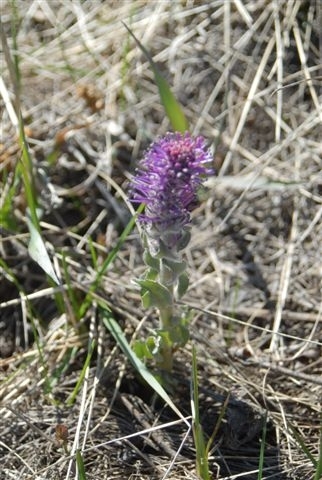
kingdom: Plantae
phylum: Tracheophyta
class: Magnoliopsida
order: Lamiales
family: Plantaginaceae
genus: Synthyris
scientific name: Synthyris wyomingensis
